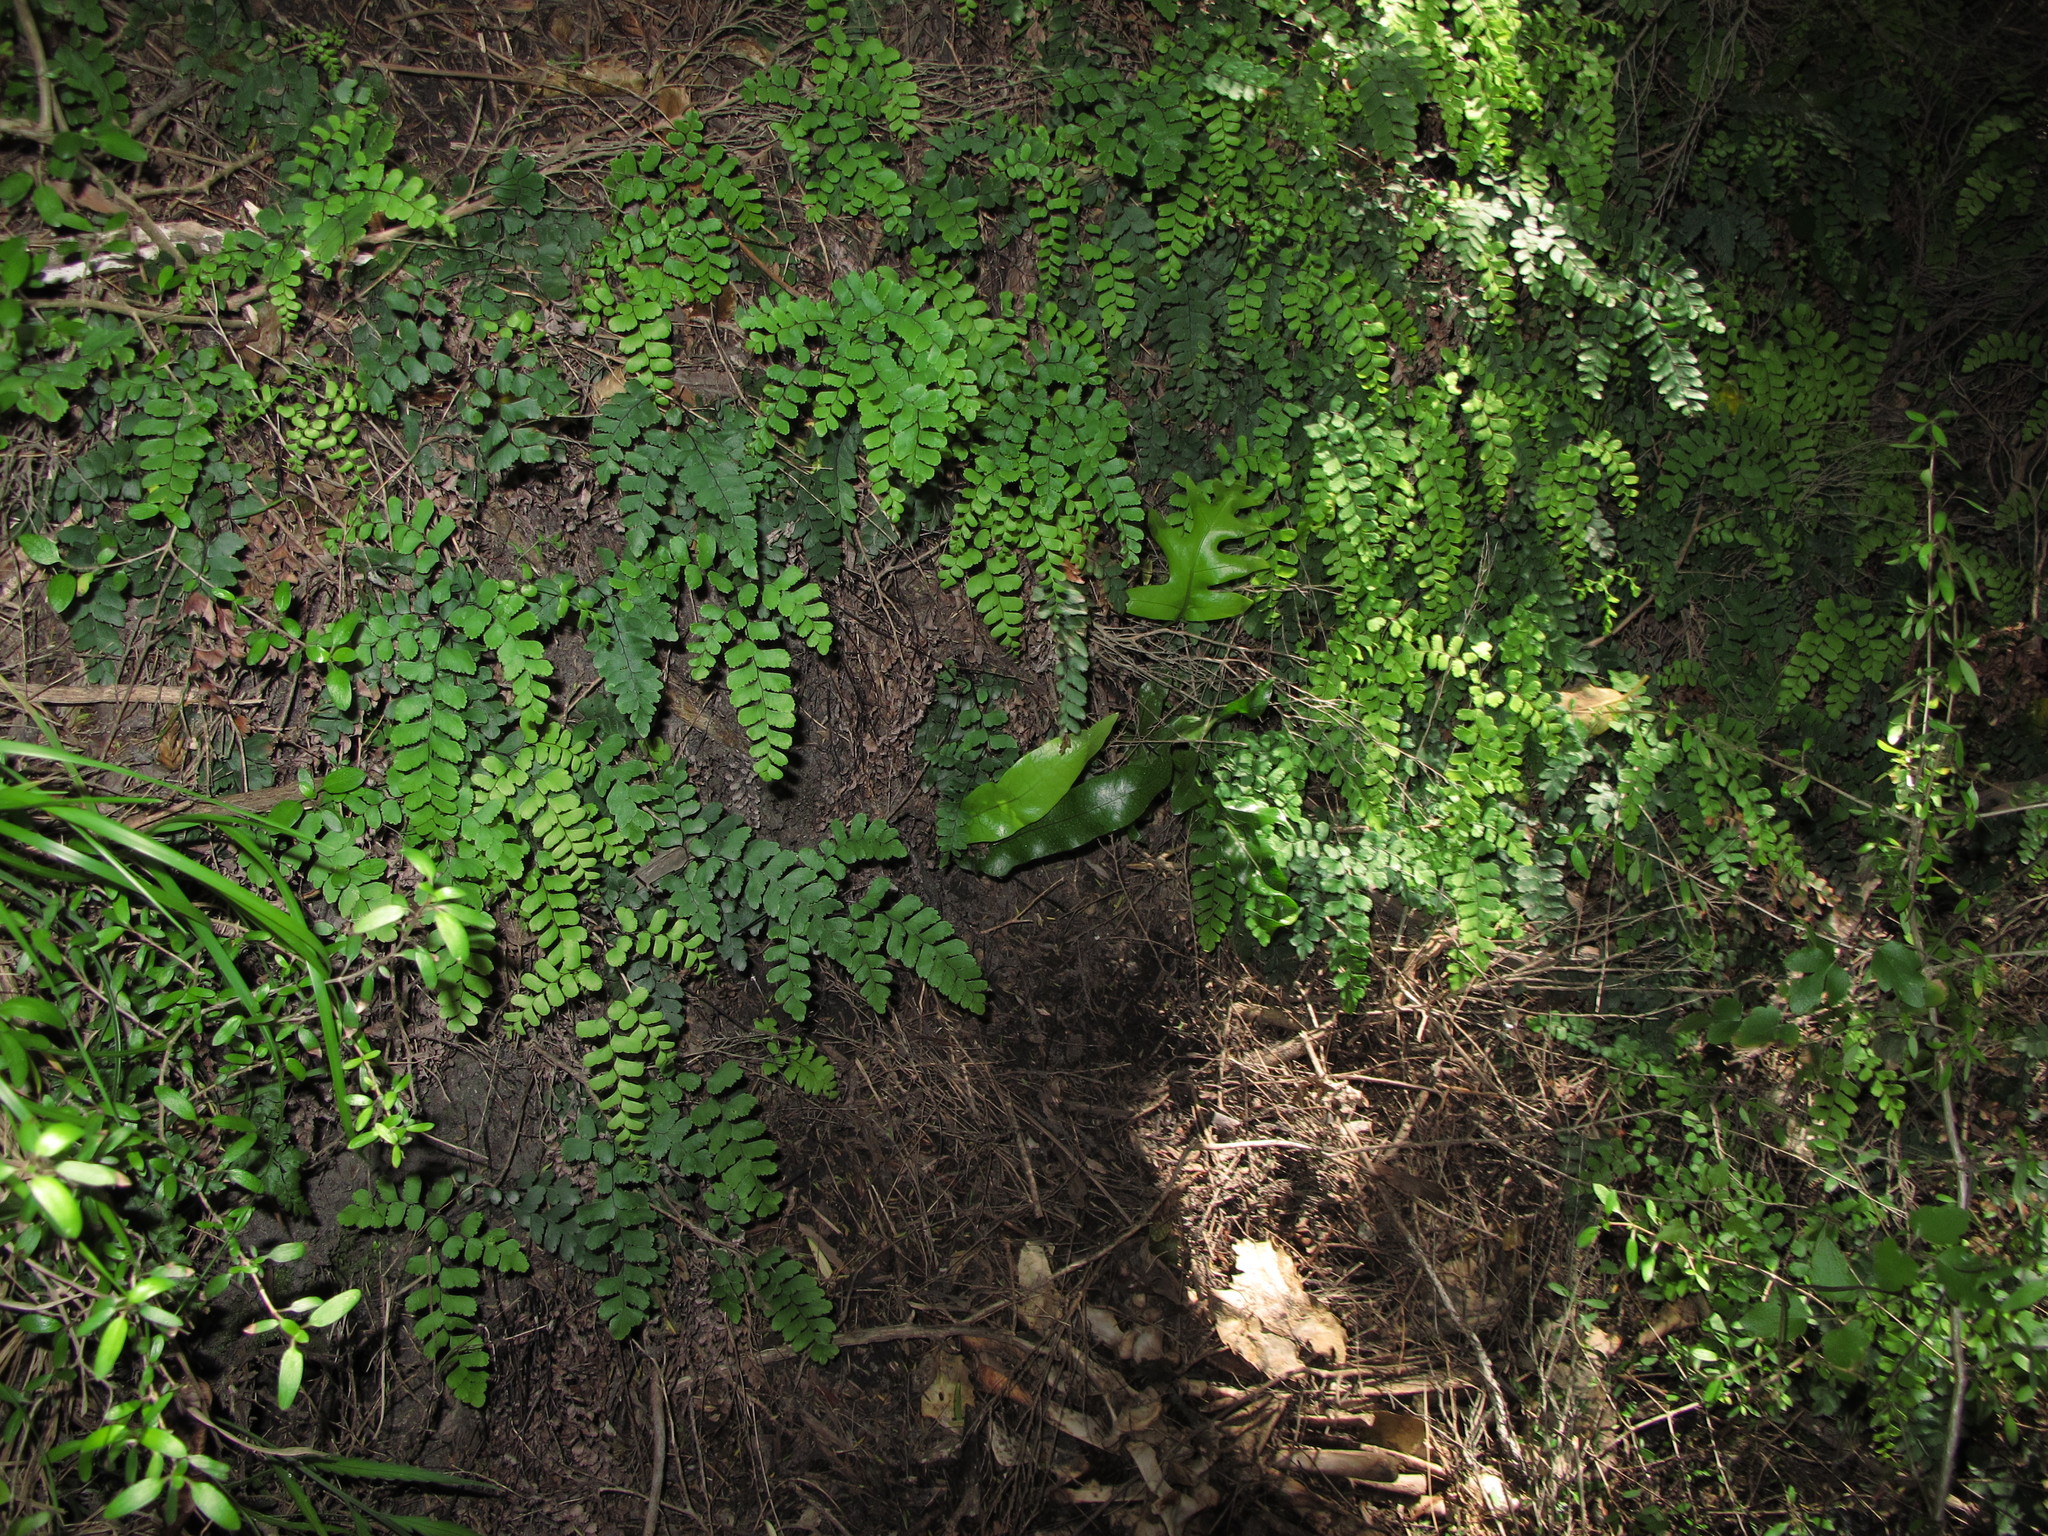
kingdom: Plantae
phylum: Tracheophyta
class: Polypodiopsida
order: Polypodiales
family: Pteridaceae
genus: Adiantum
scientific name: Adiantum cunninghamii
